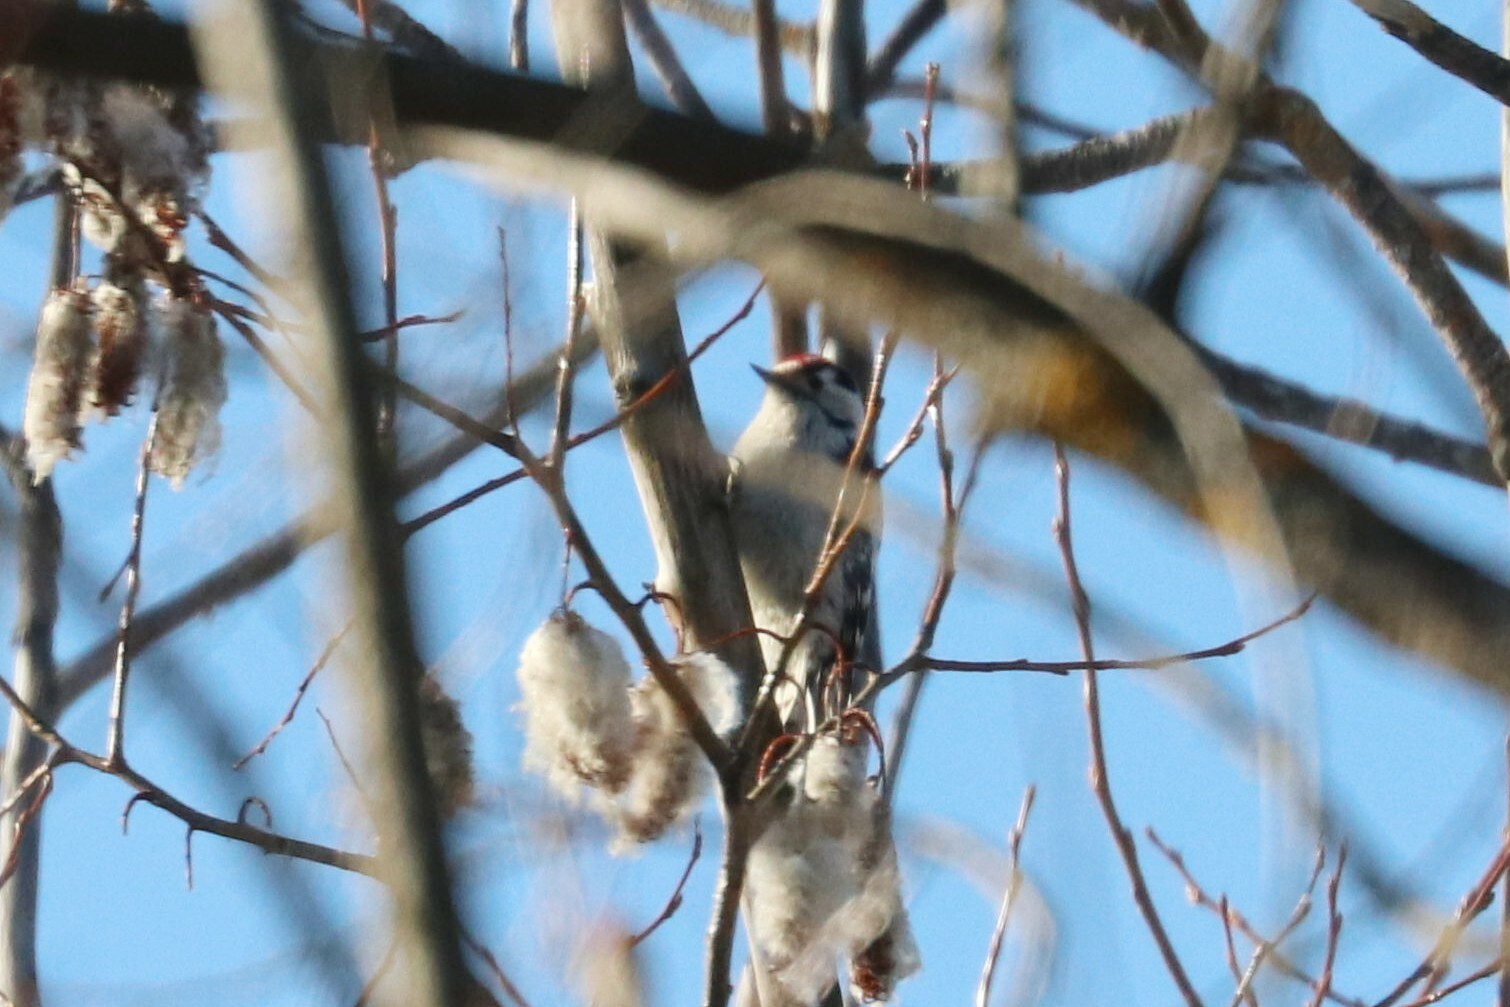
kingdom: Animalia
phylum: Chordata
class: Aves
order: Piciformes
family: Picidae
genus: Dryobates
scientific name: Dryobates minor
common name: Lesser spotted woodpecker
